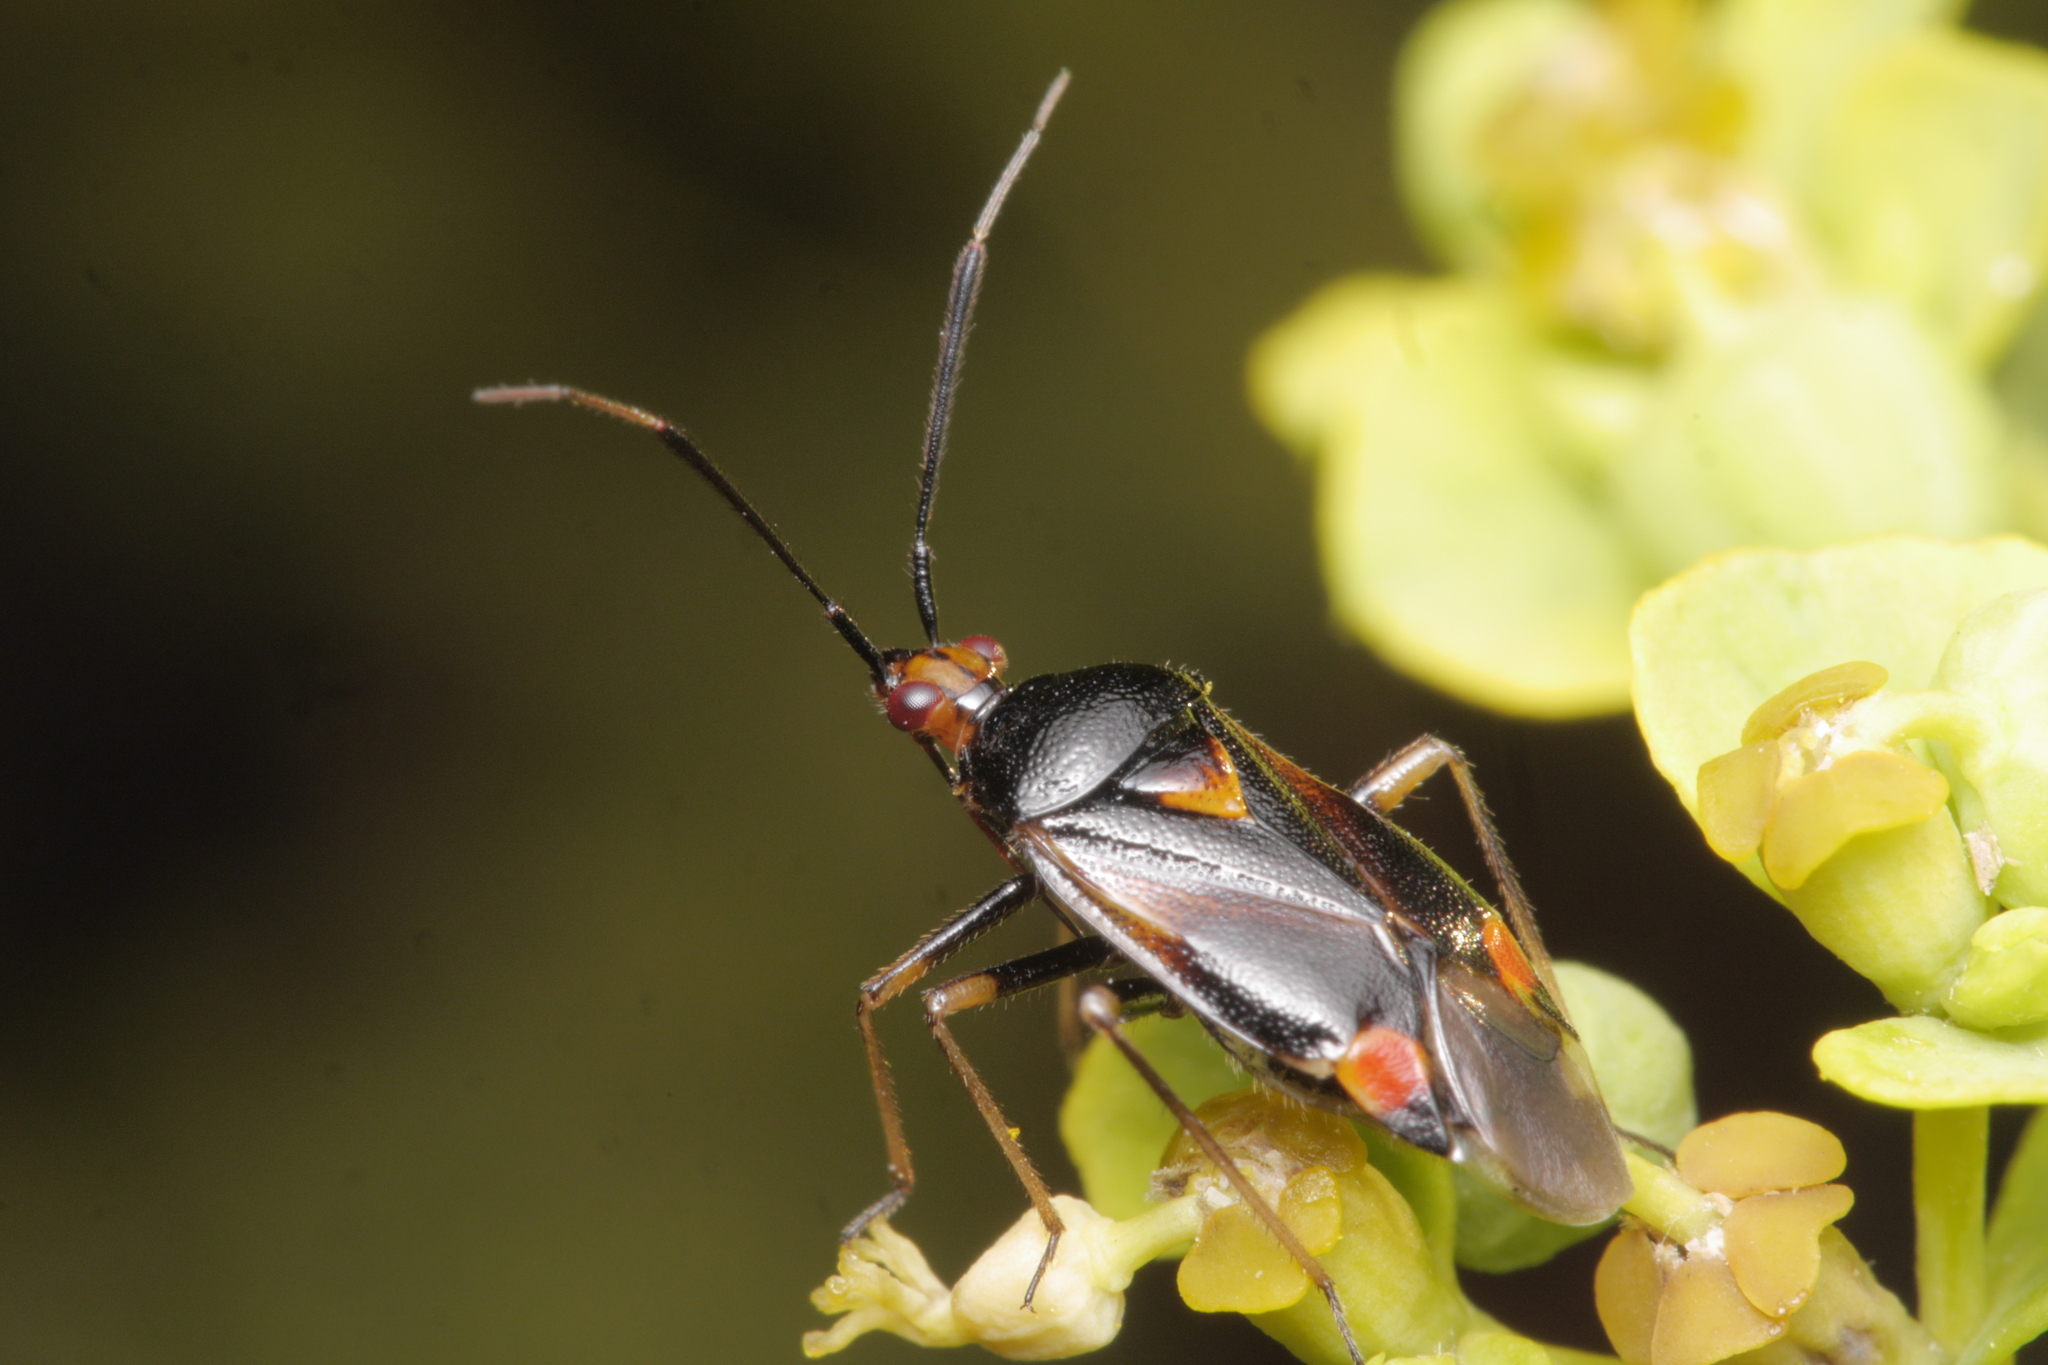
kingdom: Animalia
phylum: Arthropoda
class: Insecta
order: Hemiptera
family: Miridae
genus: Deraeocoris
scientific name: Deraeocoris ruber
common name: Plant bug
